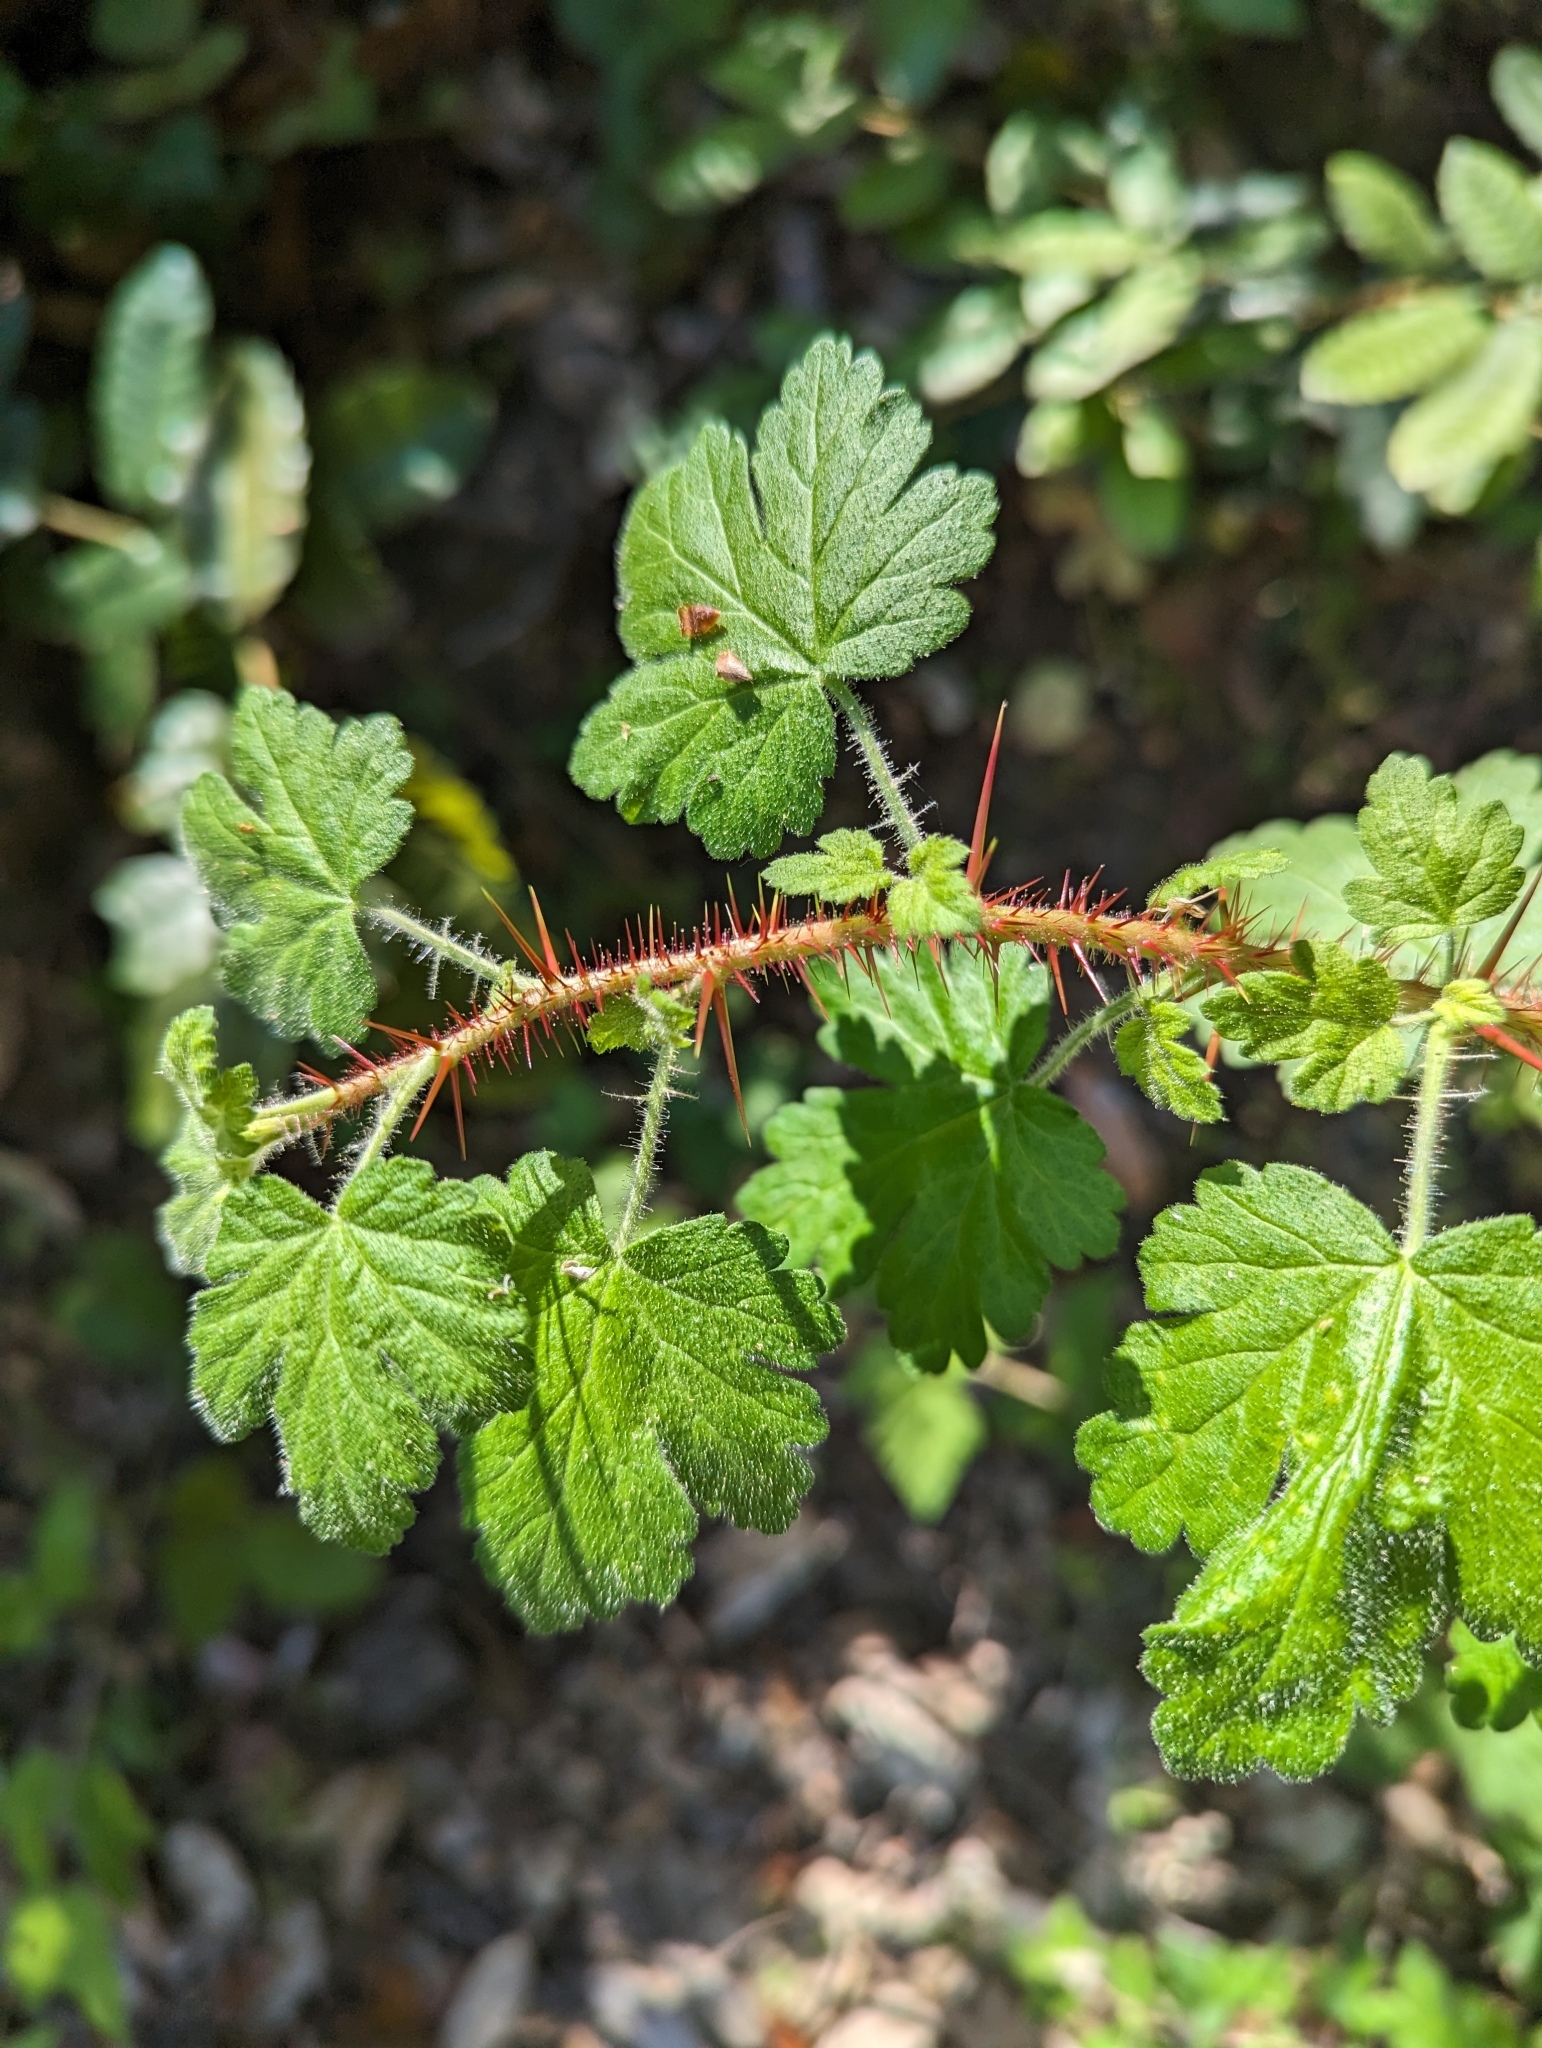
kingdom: Plantae
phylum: Tracheophyta
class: Magnoliopsida
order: Saxifragales
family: Grossulariaceae
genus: Ribes
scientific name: Ribes menziesii
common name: Canyon gooseberry
